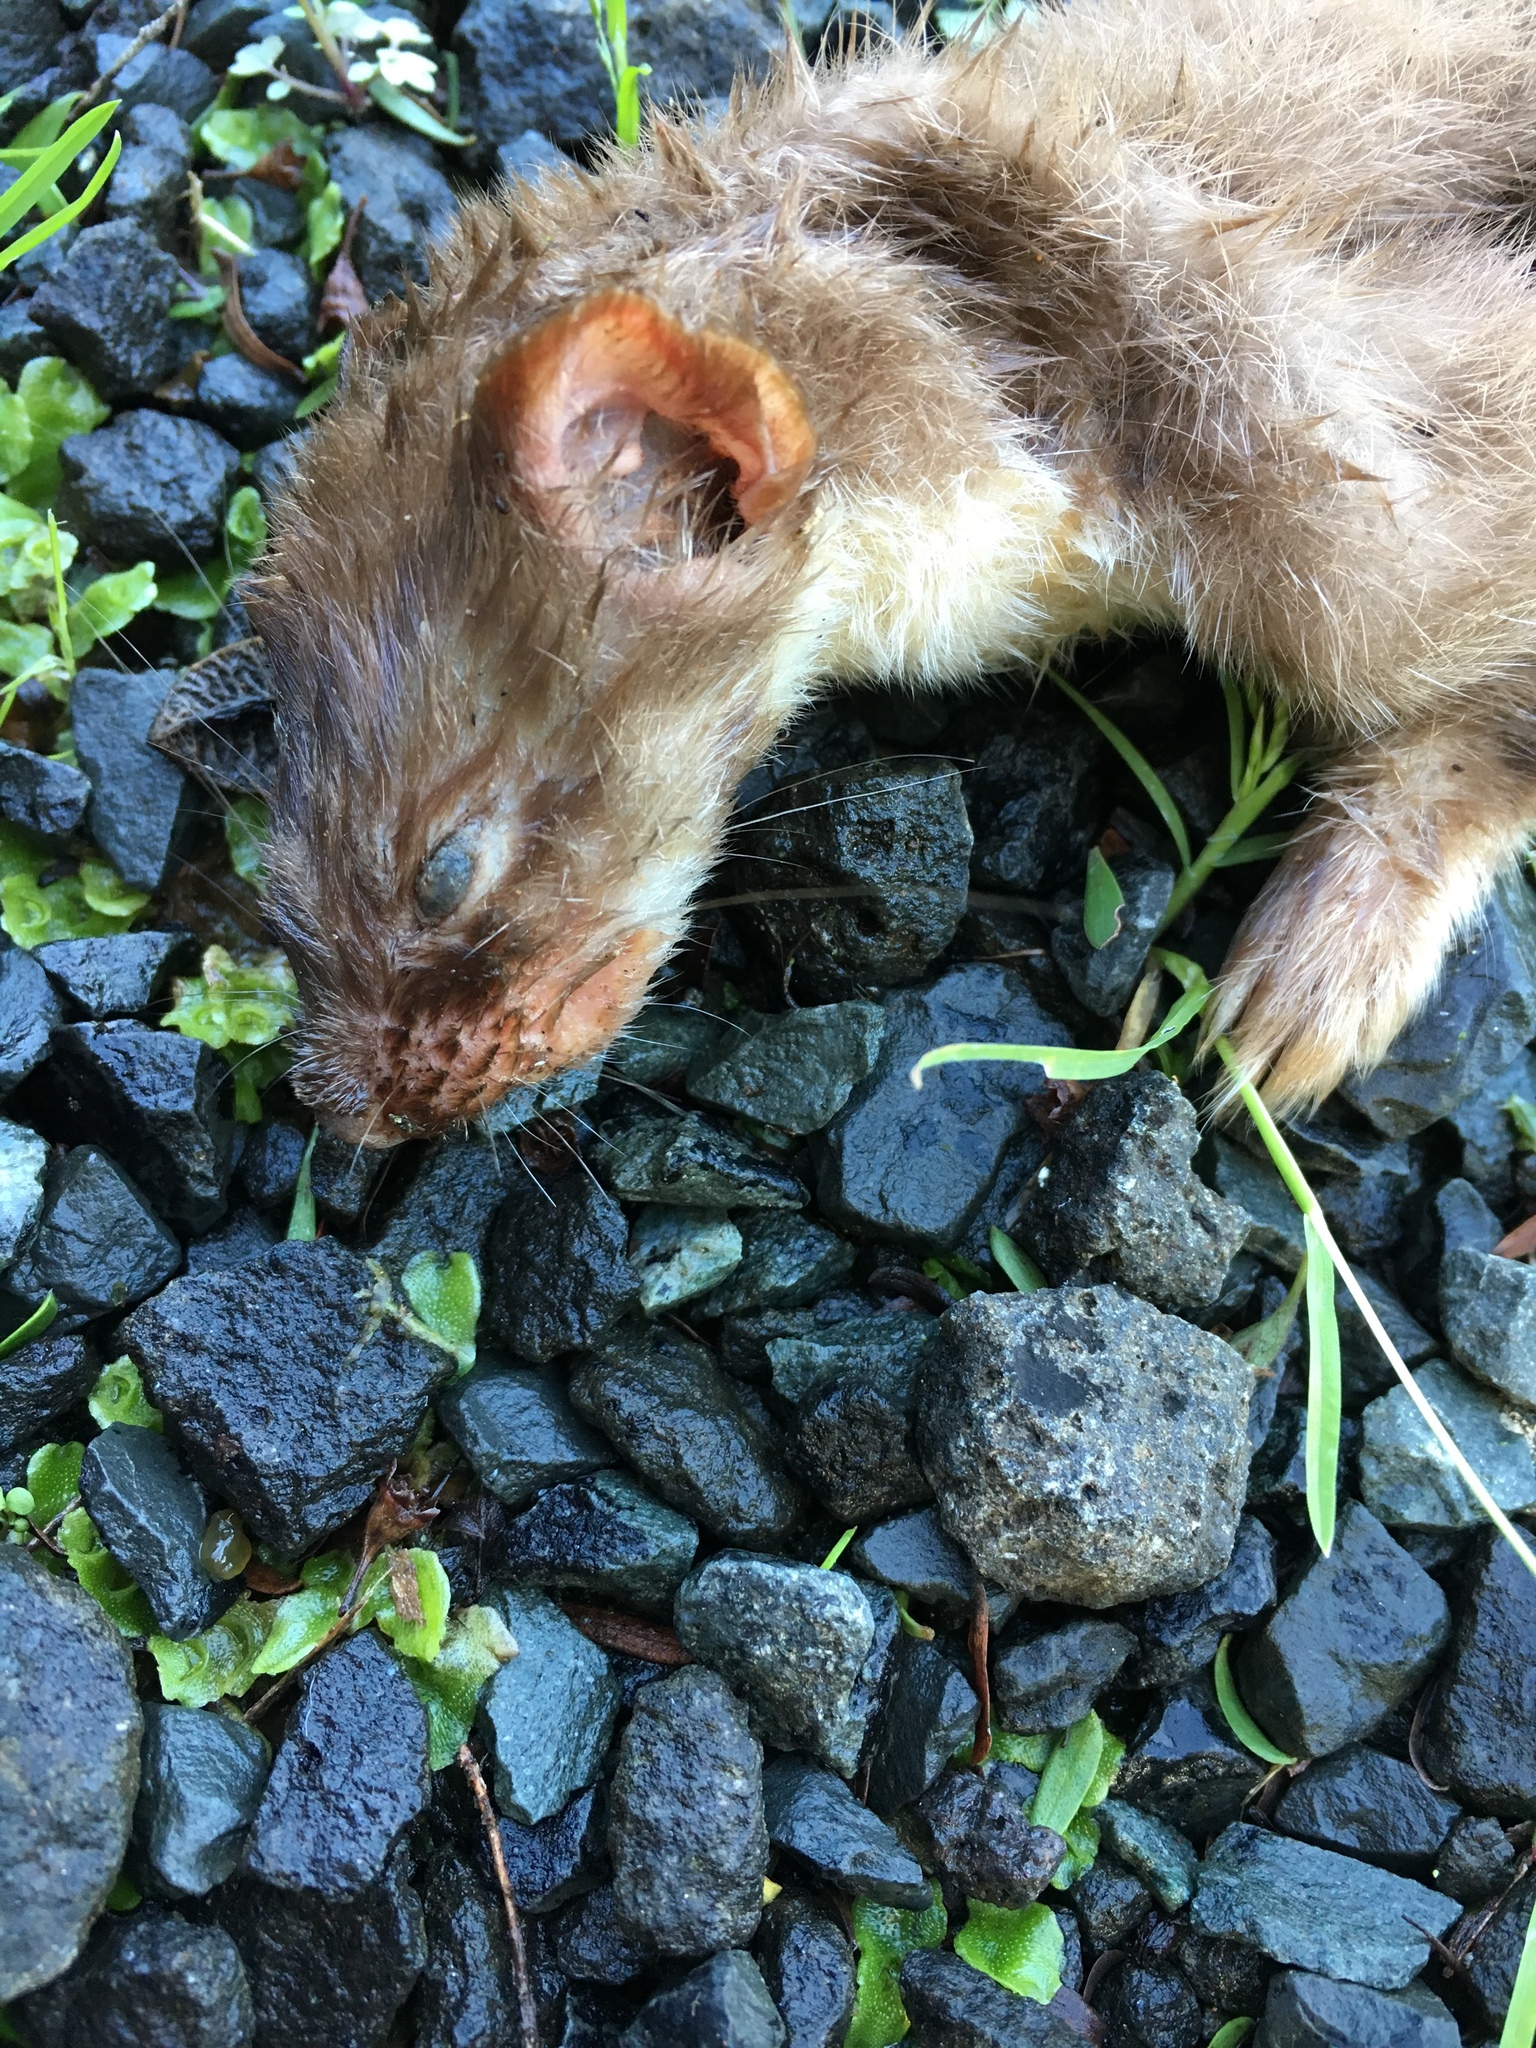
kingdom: Animalia
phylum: Chordata
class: Mammalia
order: Carnivora
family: Mustelidae
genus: Mustela
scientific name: Mustela nivalis
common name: Least weasel
